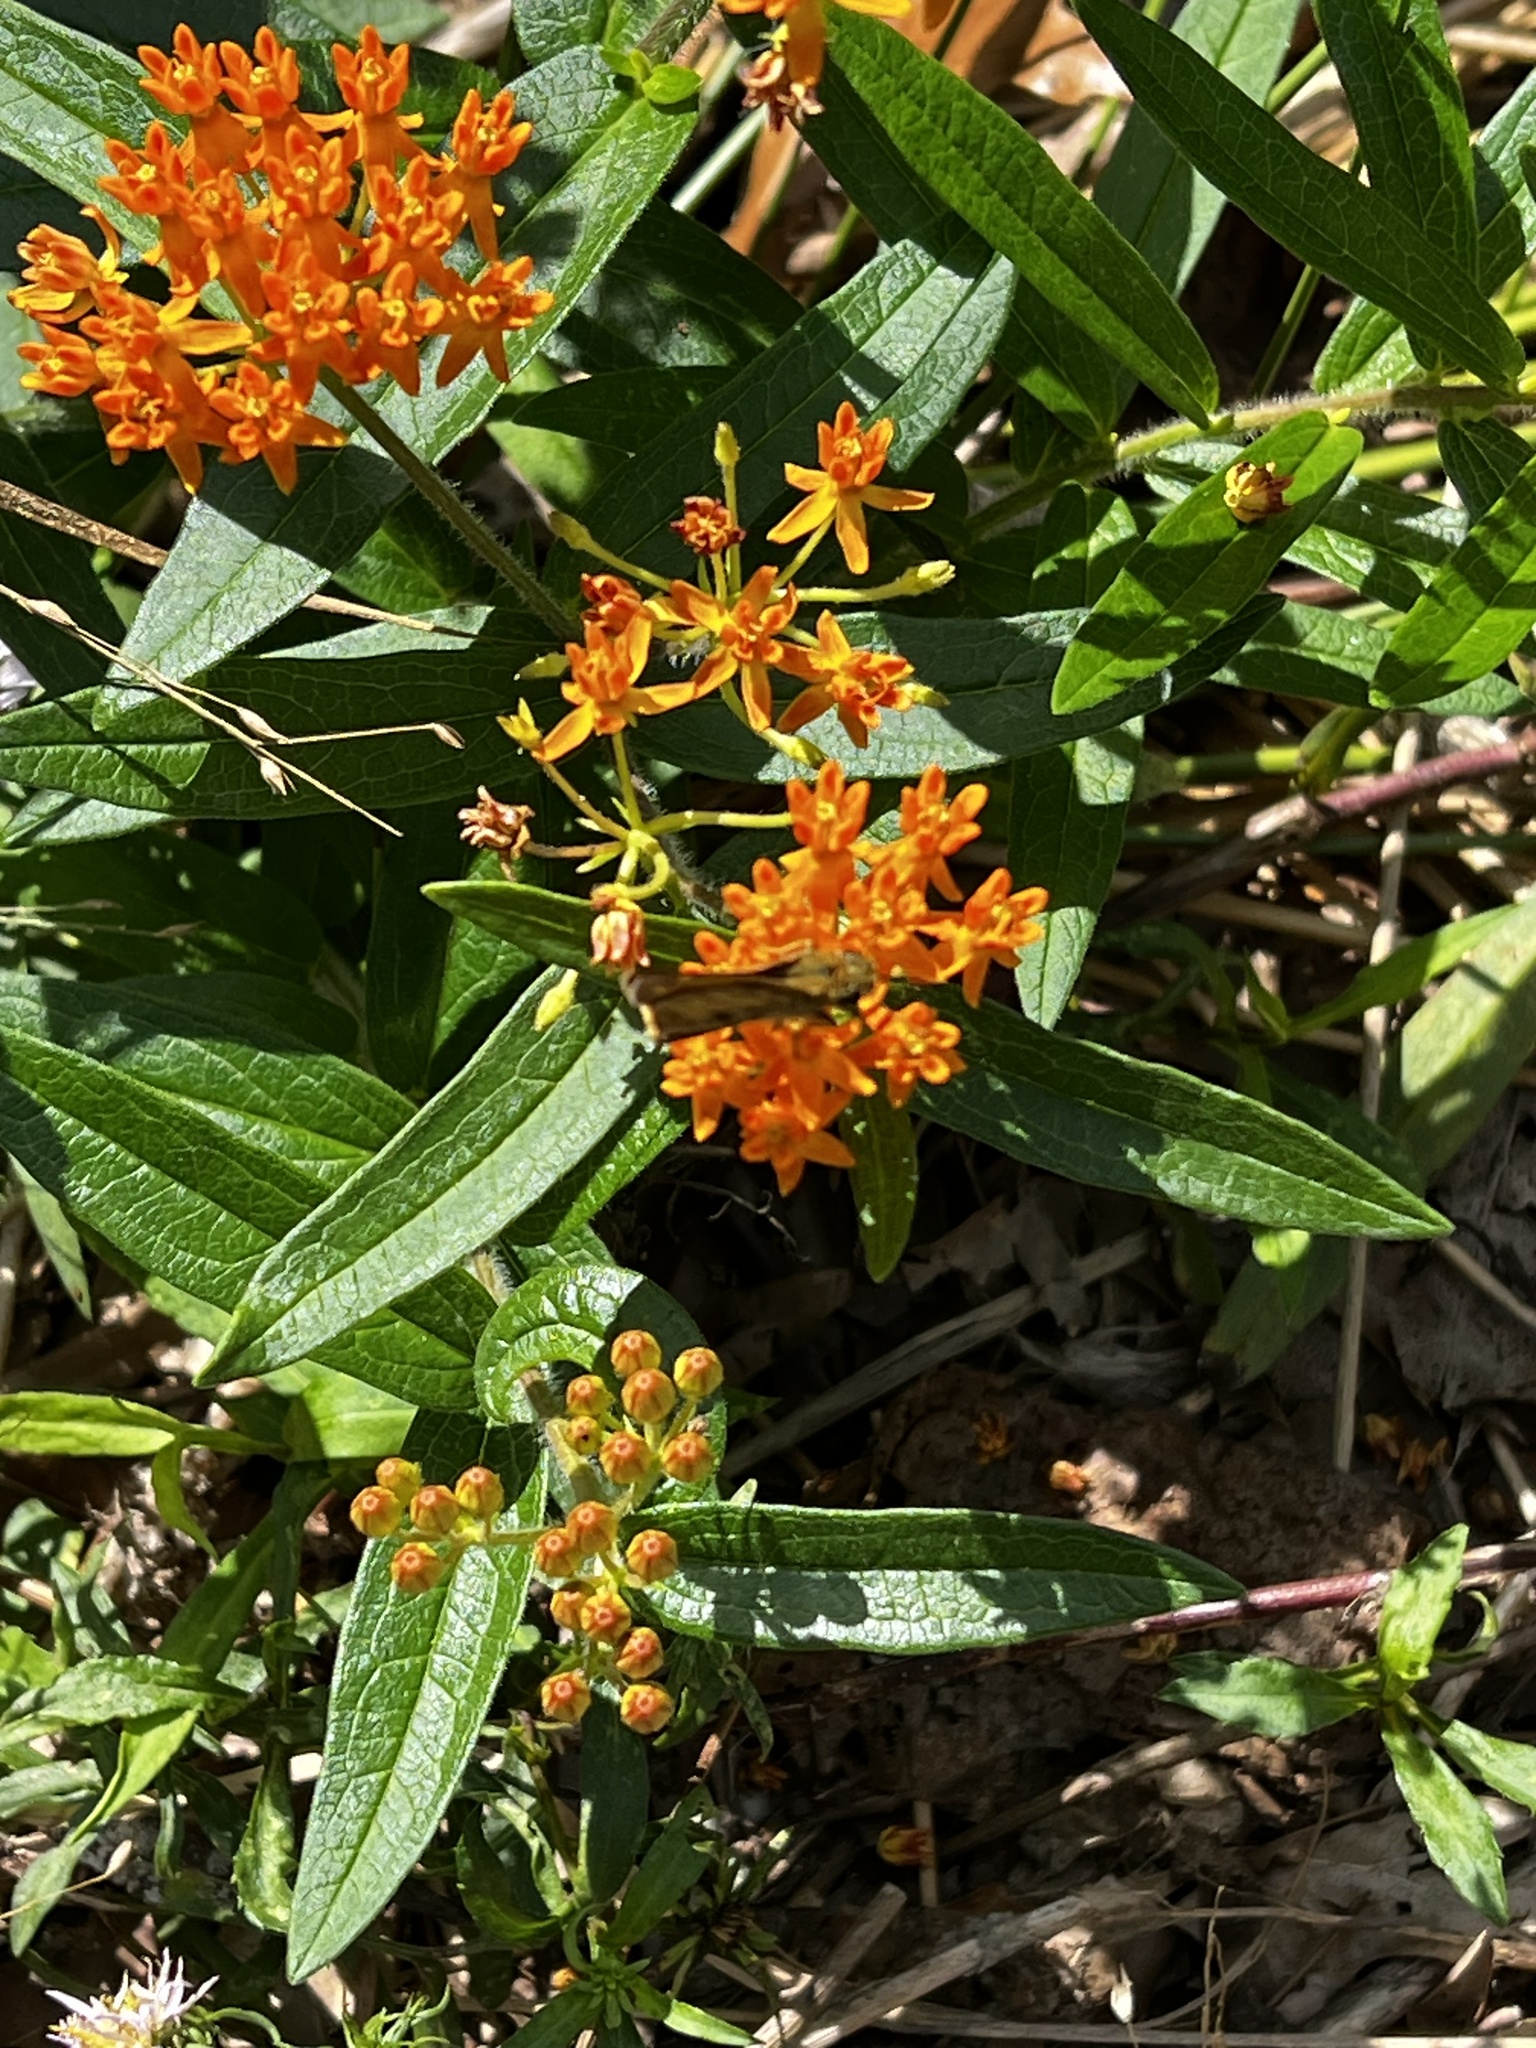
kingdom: Animalia
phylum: Arthropoda
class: Insecta
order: Lepidoptera
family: Hesperiidae
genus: Atalopedes
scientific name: Atalopedes
